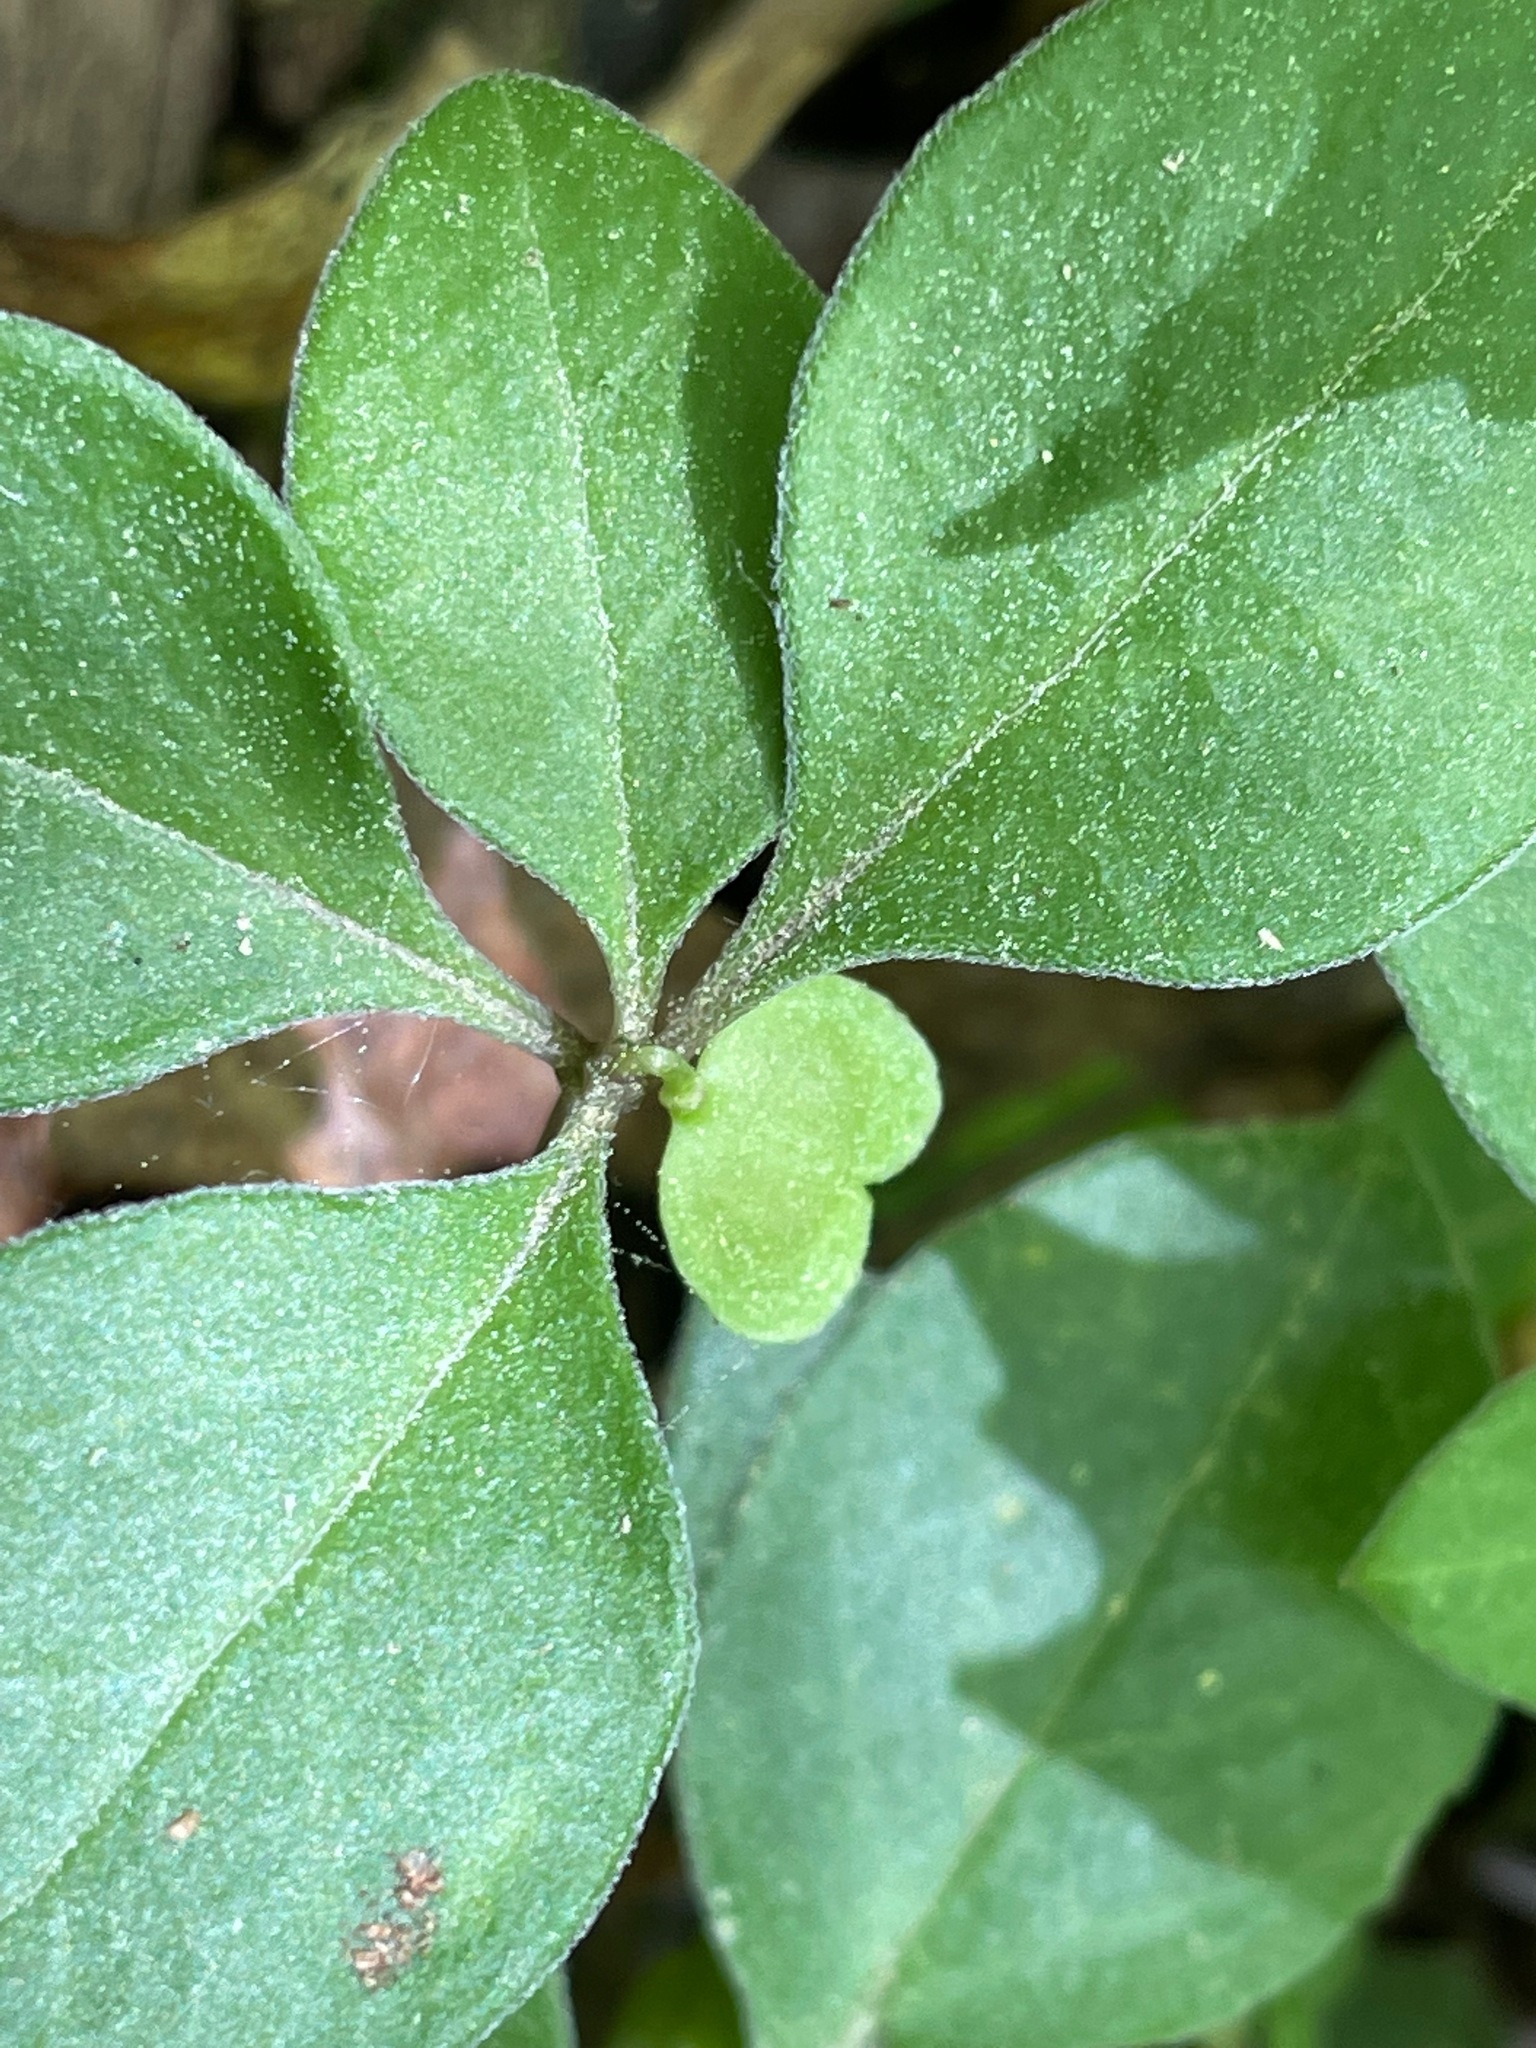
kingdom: Plantae
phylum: Tracheophyta
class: Magnoliopsida
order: Fabales
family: Polygalaceae
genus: Polygaloides
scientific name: Polygaloides paucifolia
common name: Bird-on-the-wing
